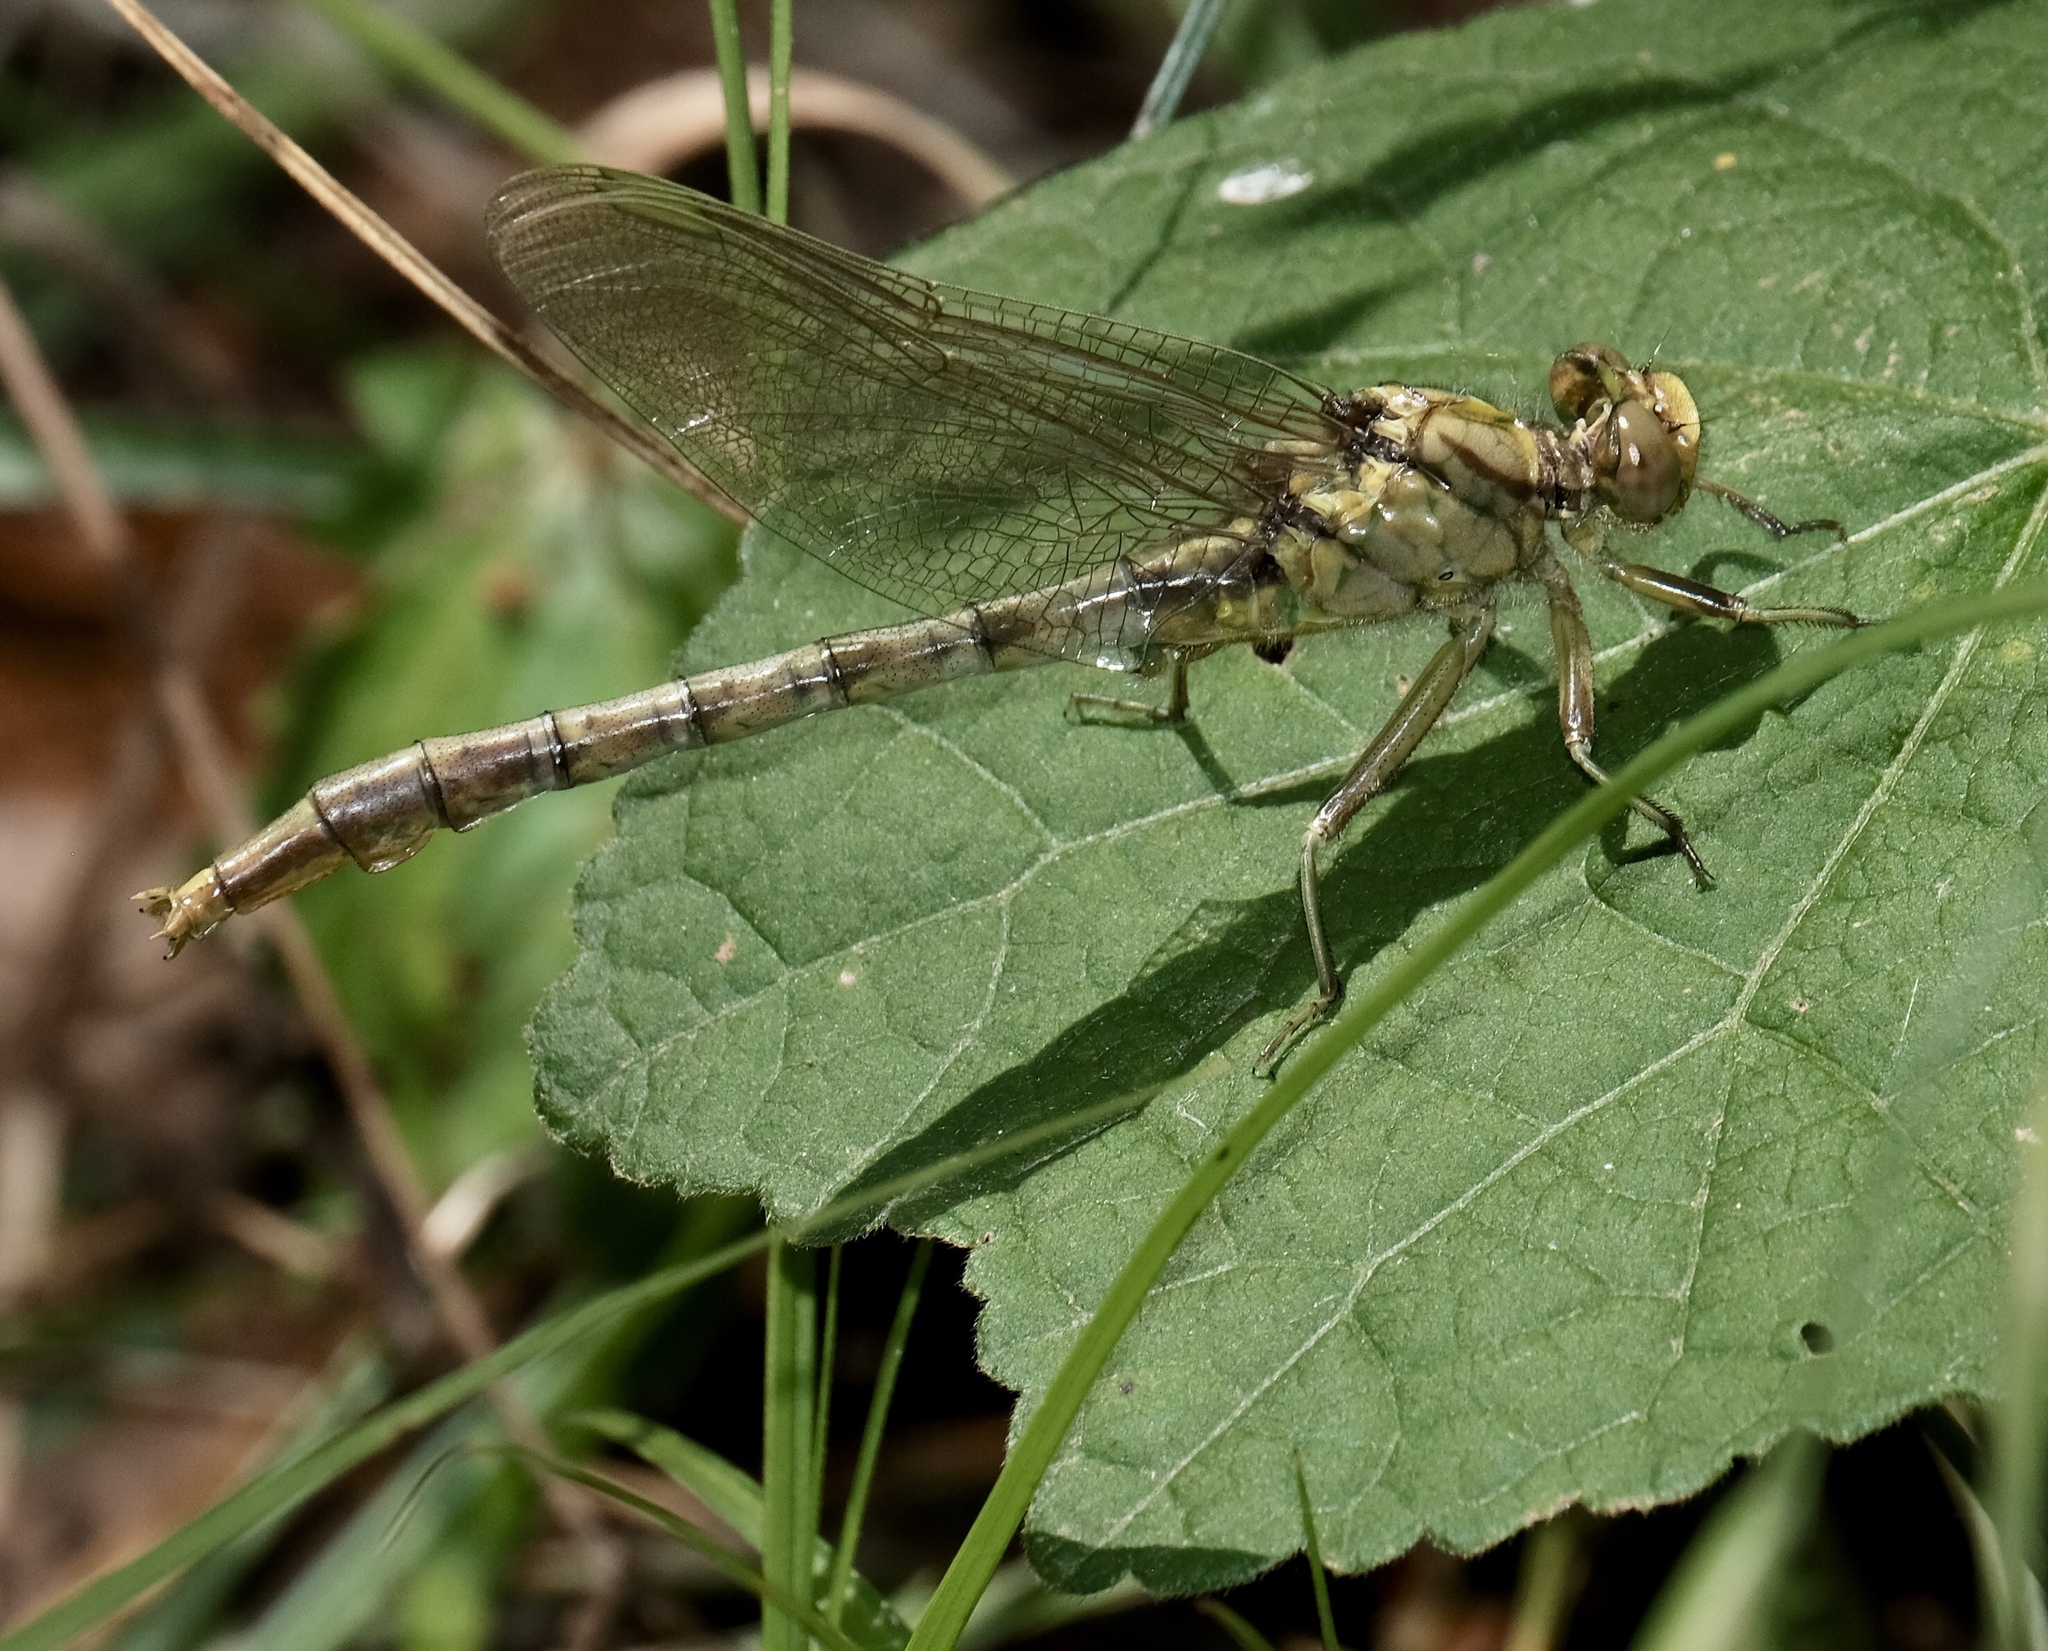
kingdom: Animalia
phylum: Arthropoda
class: Insecta
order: Odonata
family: Gomphidae
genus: Arigomphus
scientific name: Arigomphus submedianus
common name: Jade clubtail
